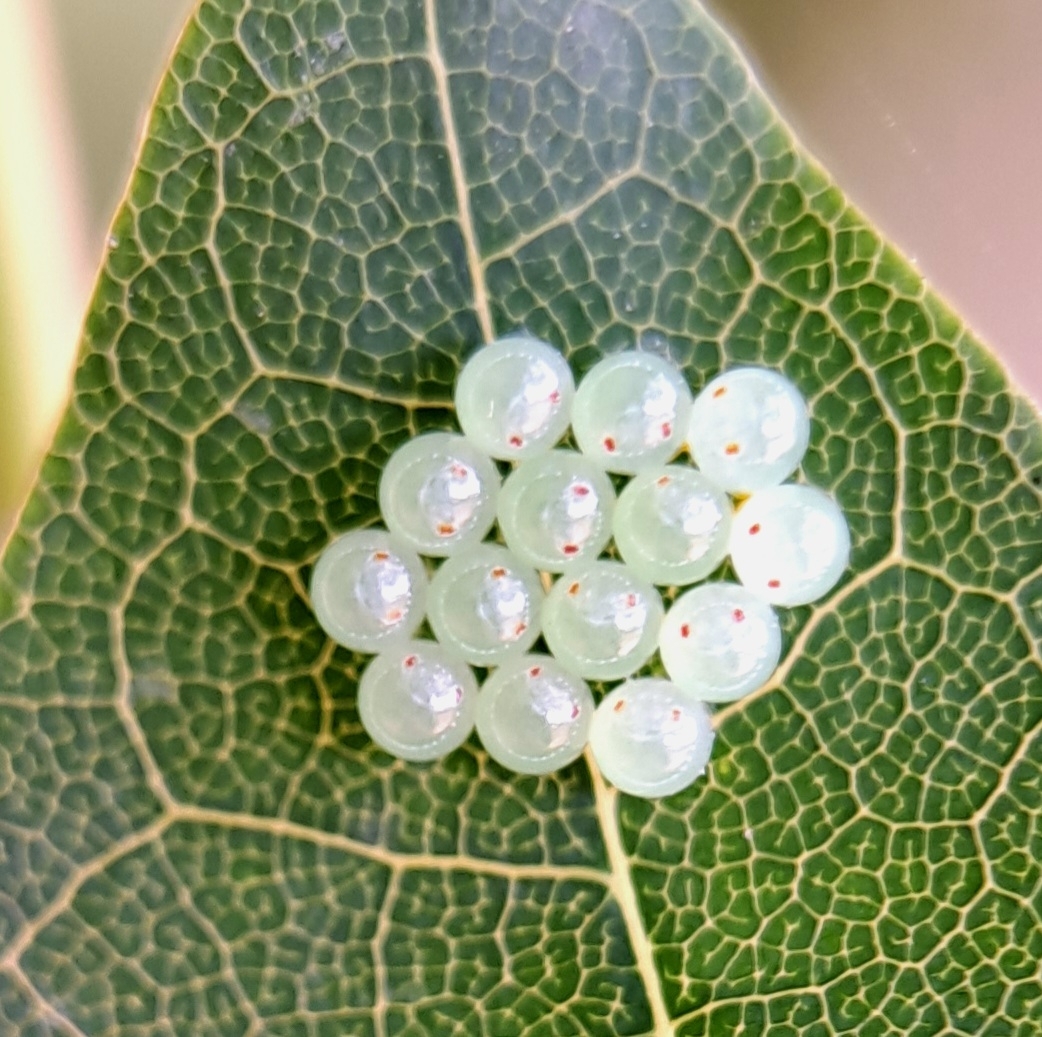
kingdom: Animalia
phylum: Arthropoda
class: Insecta
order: Hemiptera
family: Pentatomidae
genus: Pentatoma
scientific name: Pentatoma rufipes
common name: Forest bug
